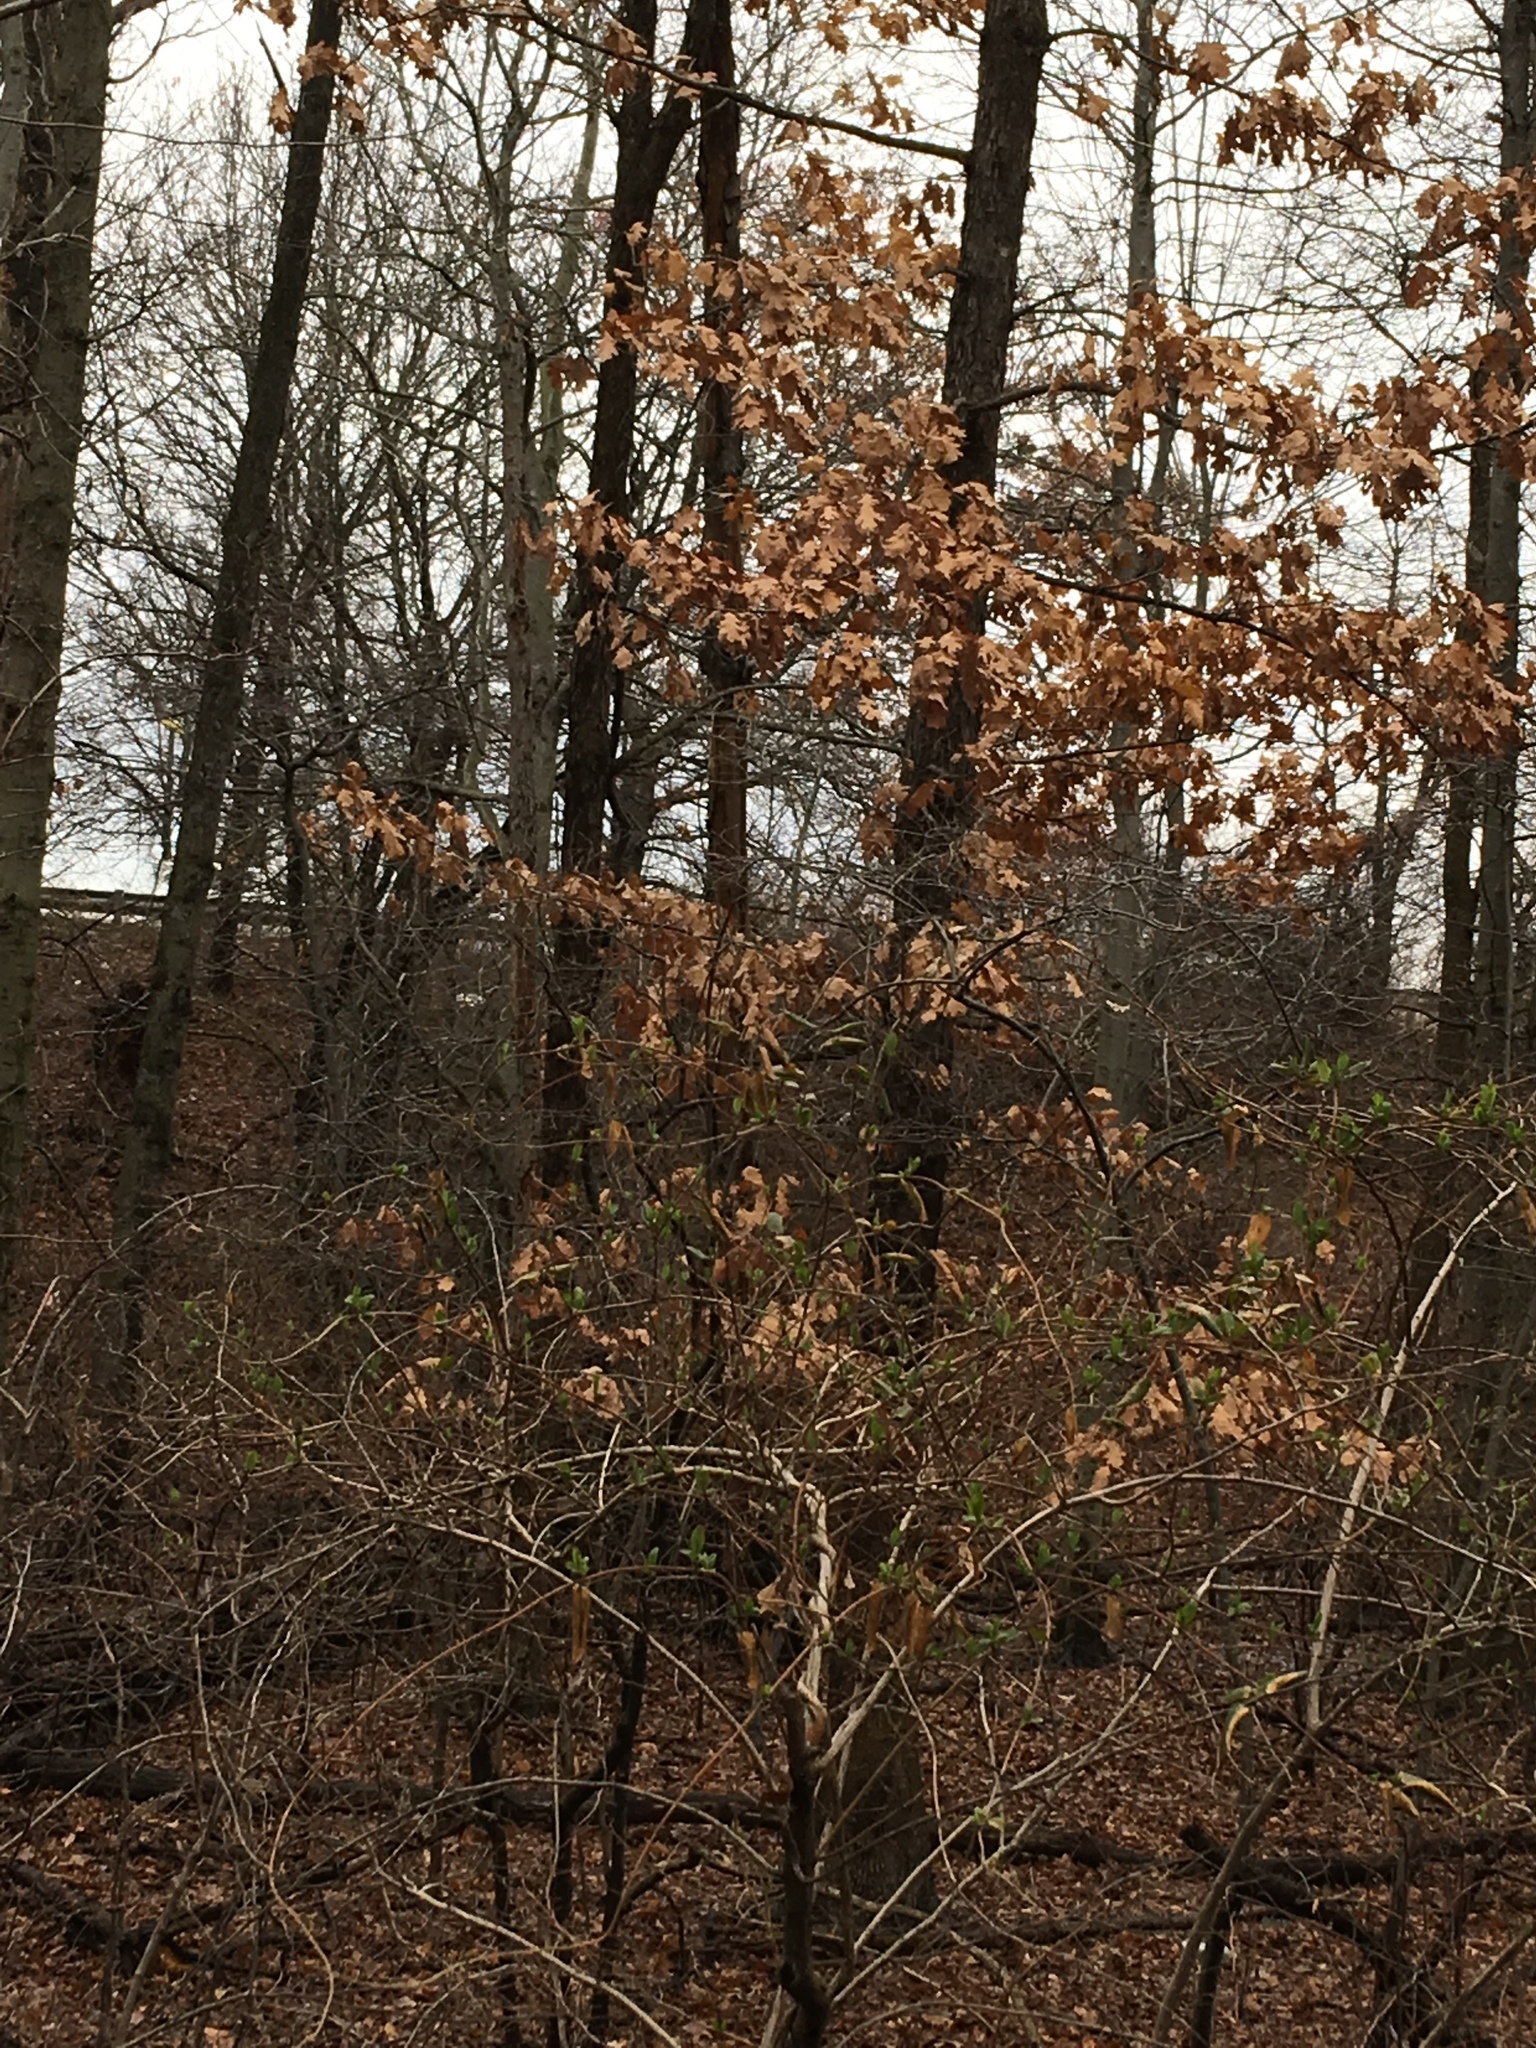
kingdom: Plantae
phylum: Tracheophyta
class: Magnoliopsida
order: Fagales
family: Fagaceae
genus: Quercus
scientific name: Quercus bicolor
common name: Swamp white oak
